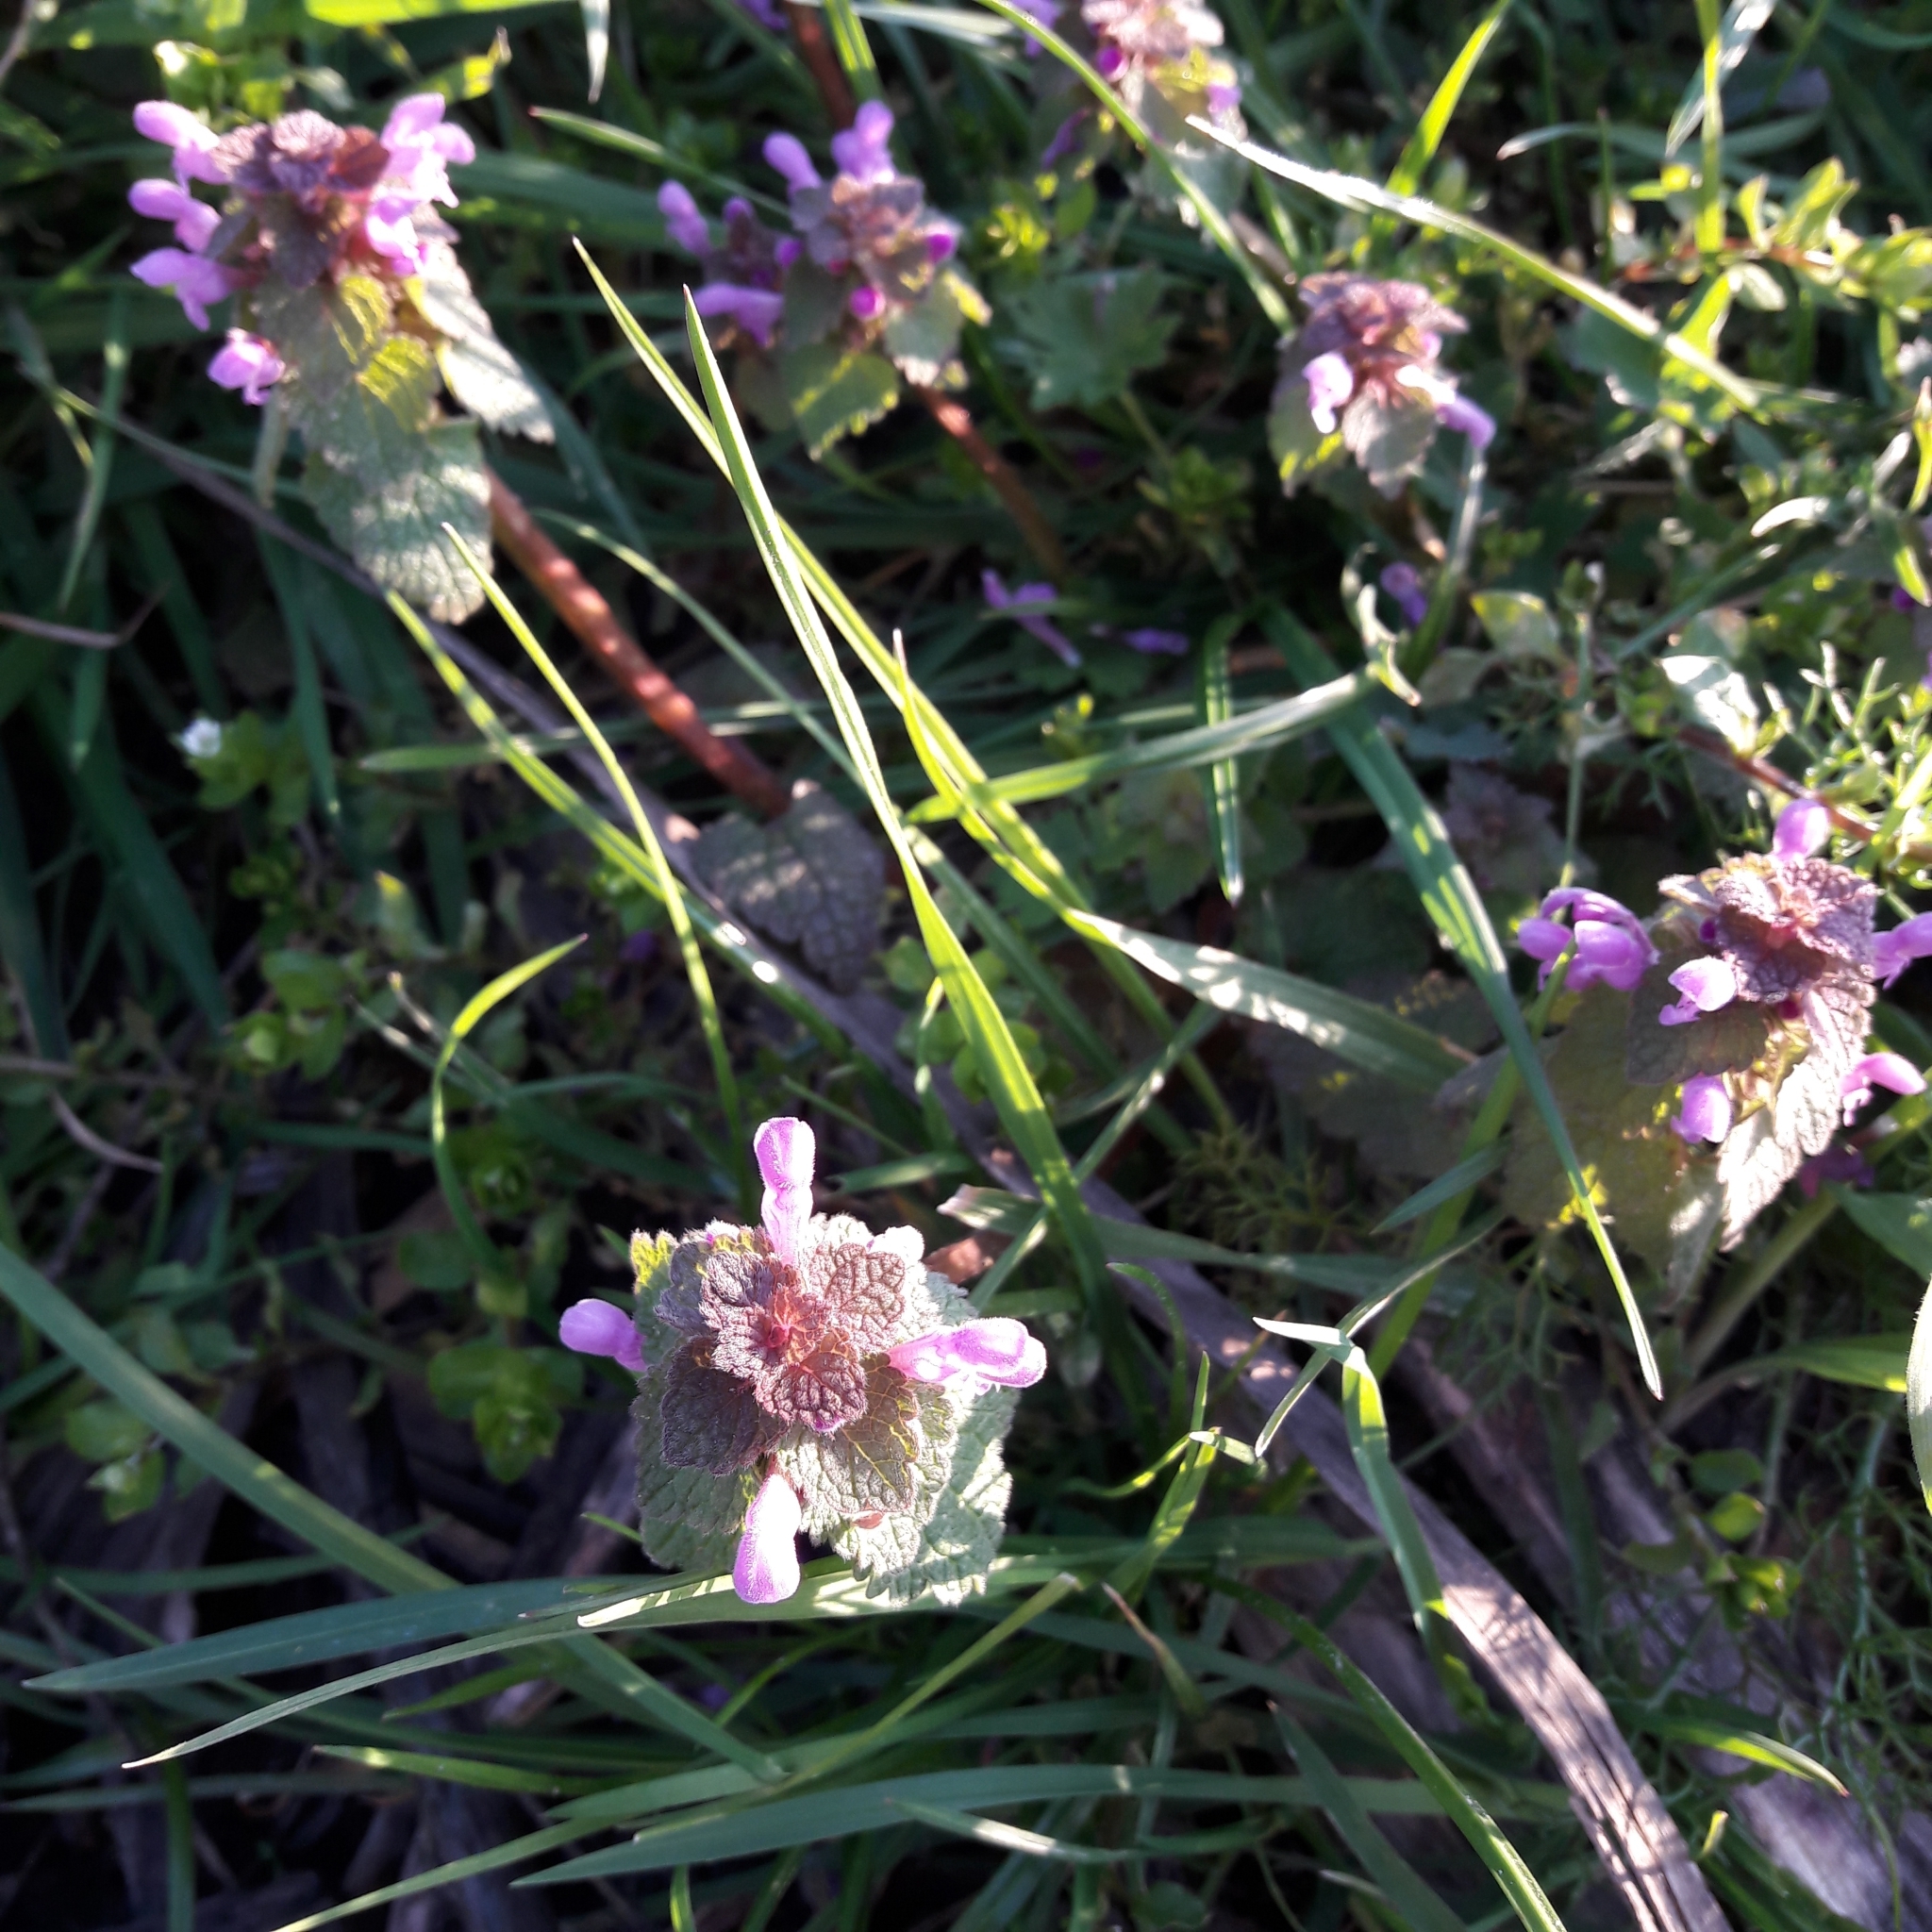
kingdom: Plantae
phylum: Tracheophyta
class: Magnoliopsida
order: Lamiales
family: Lamiaceae
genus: Lamium
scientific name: Lamium purpureum
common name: Red dead-nettle
